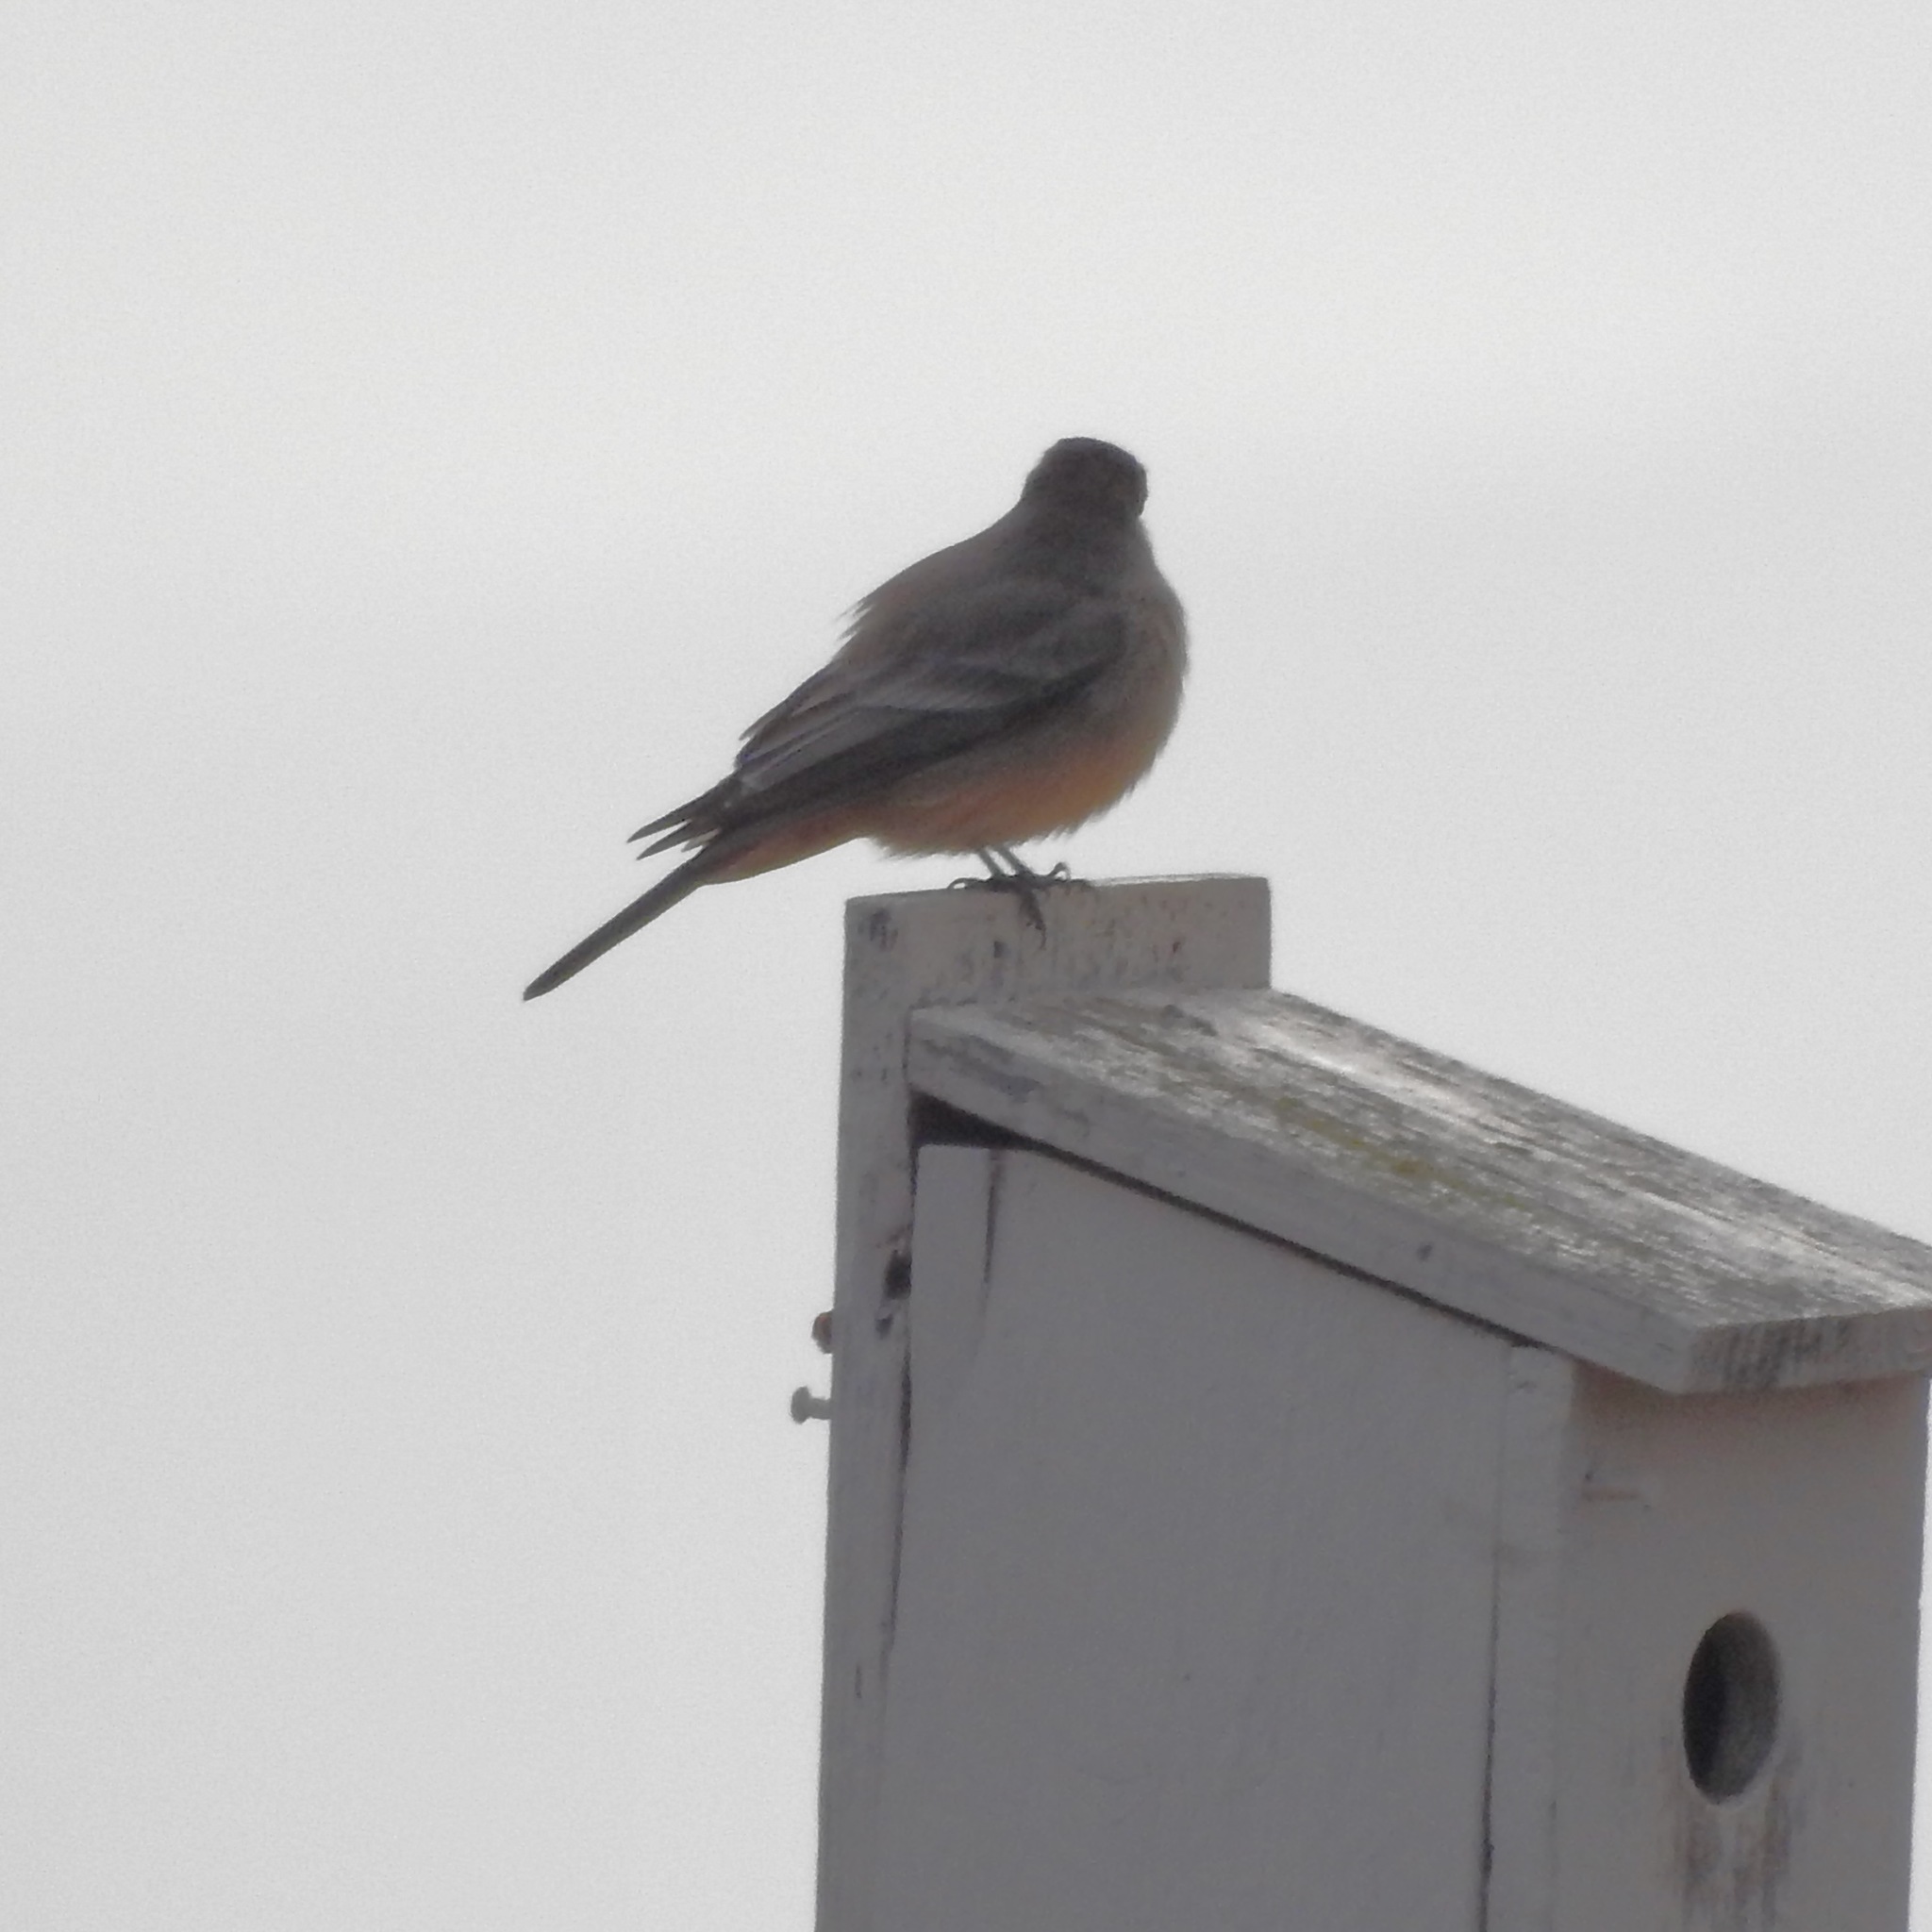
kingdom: Animalia
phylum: Chordata
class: Aves
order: Passeriformes
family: Tyrannidae
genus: Sayornis
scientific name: Sayornis saya
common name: Say's phoebe
